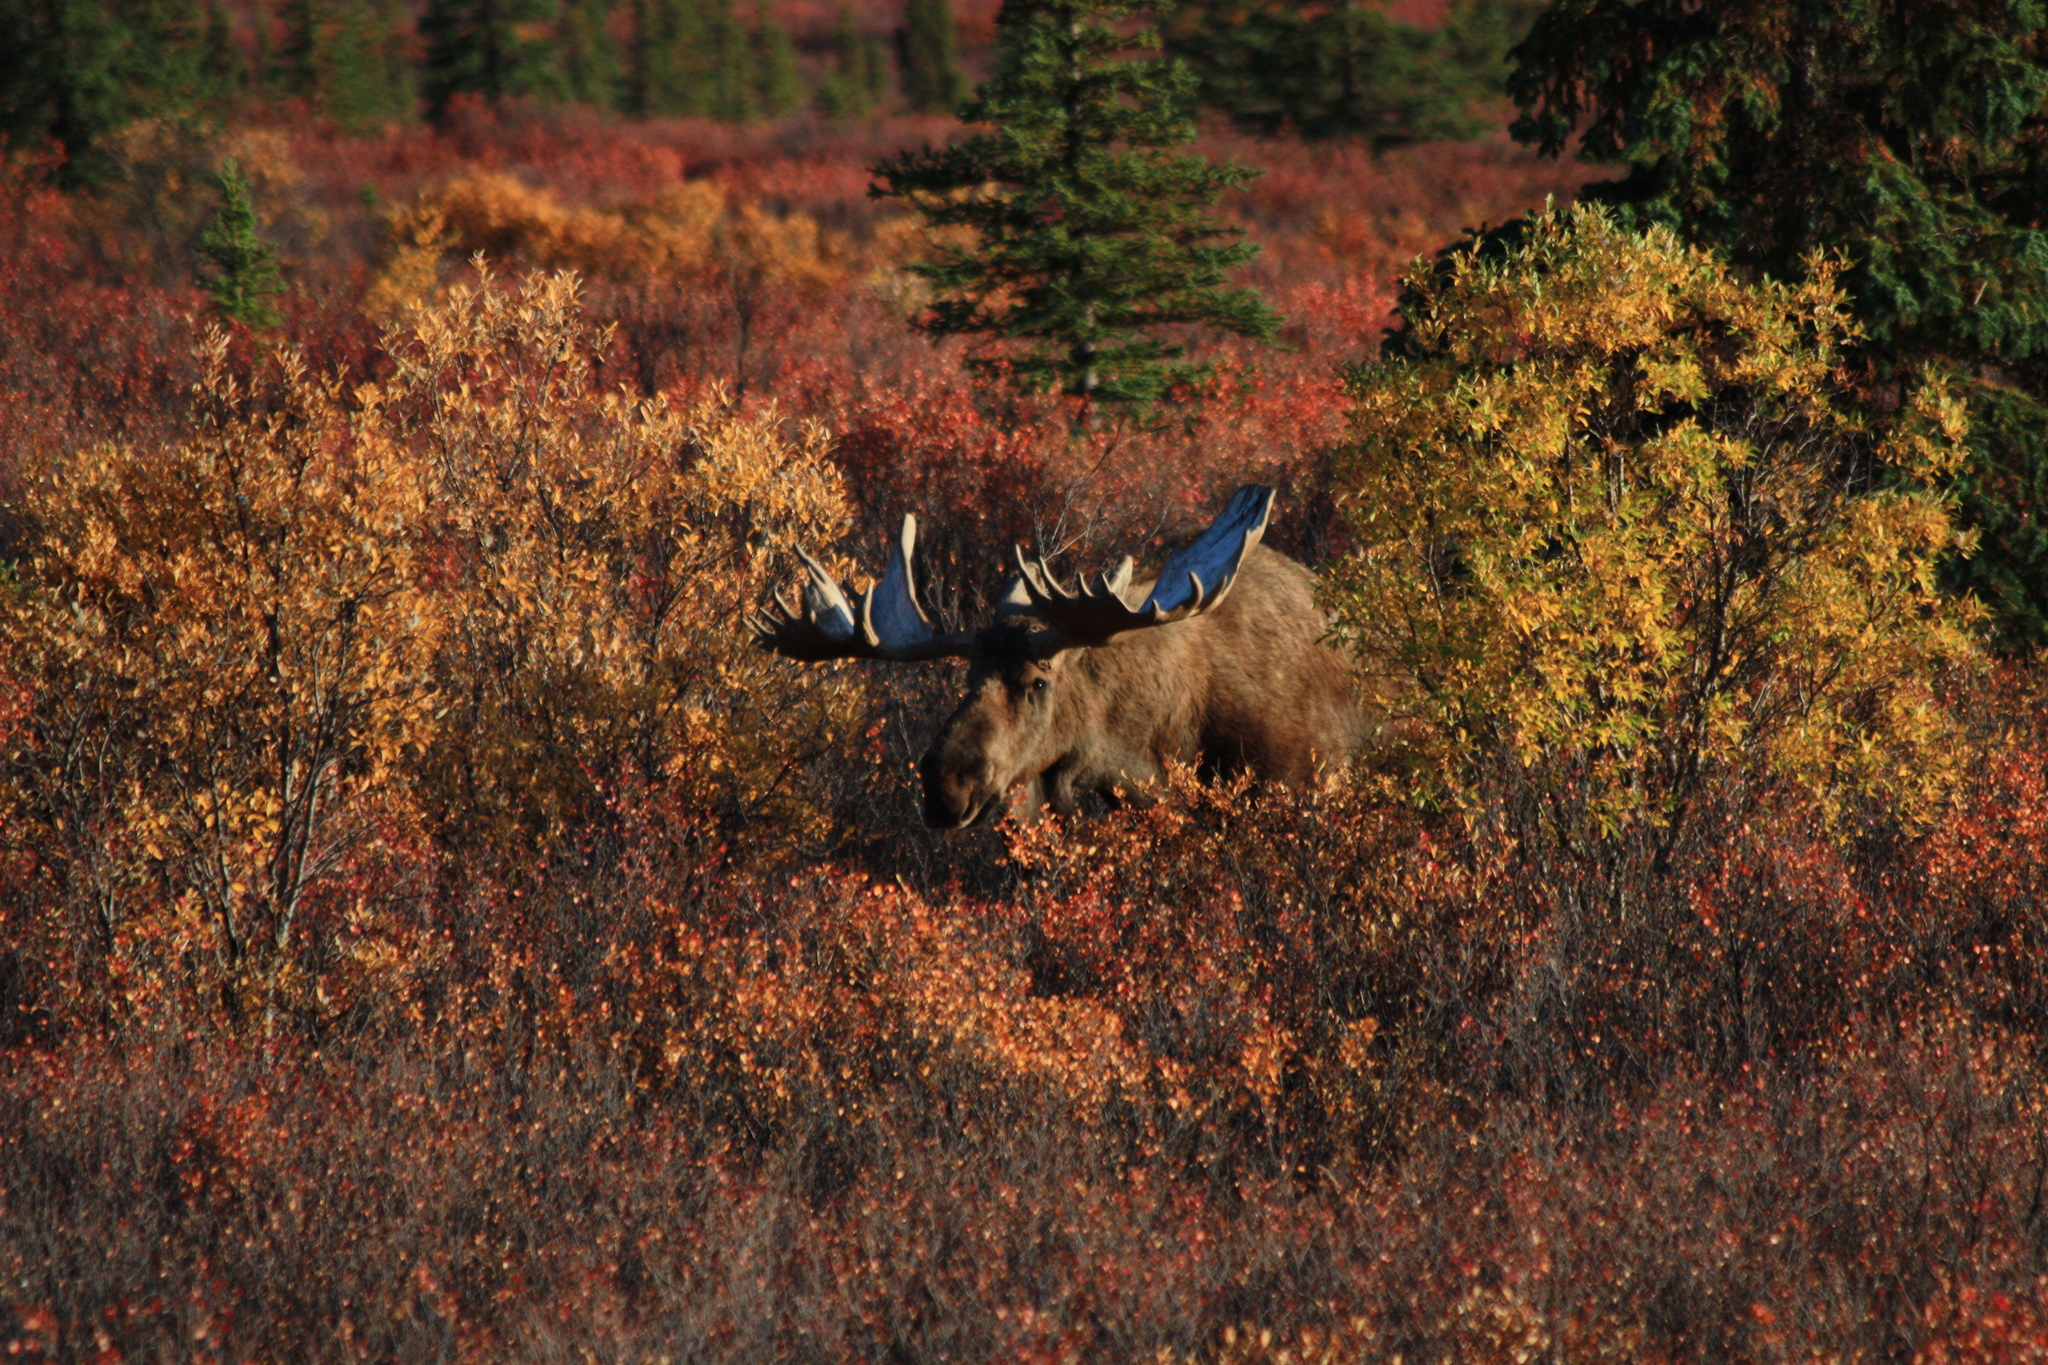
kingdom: Animalia
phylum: Chordata
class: Mammalia
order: Artiodactyla
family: Cervidae
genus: Alces
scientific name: Alces alces
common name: Moose
